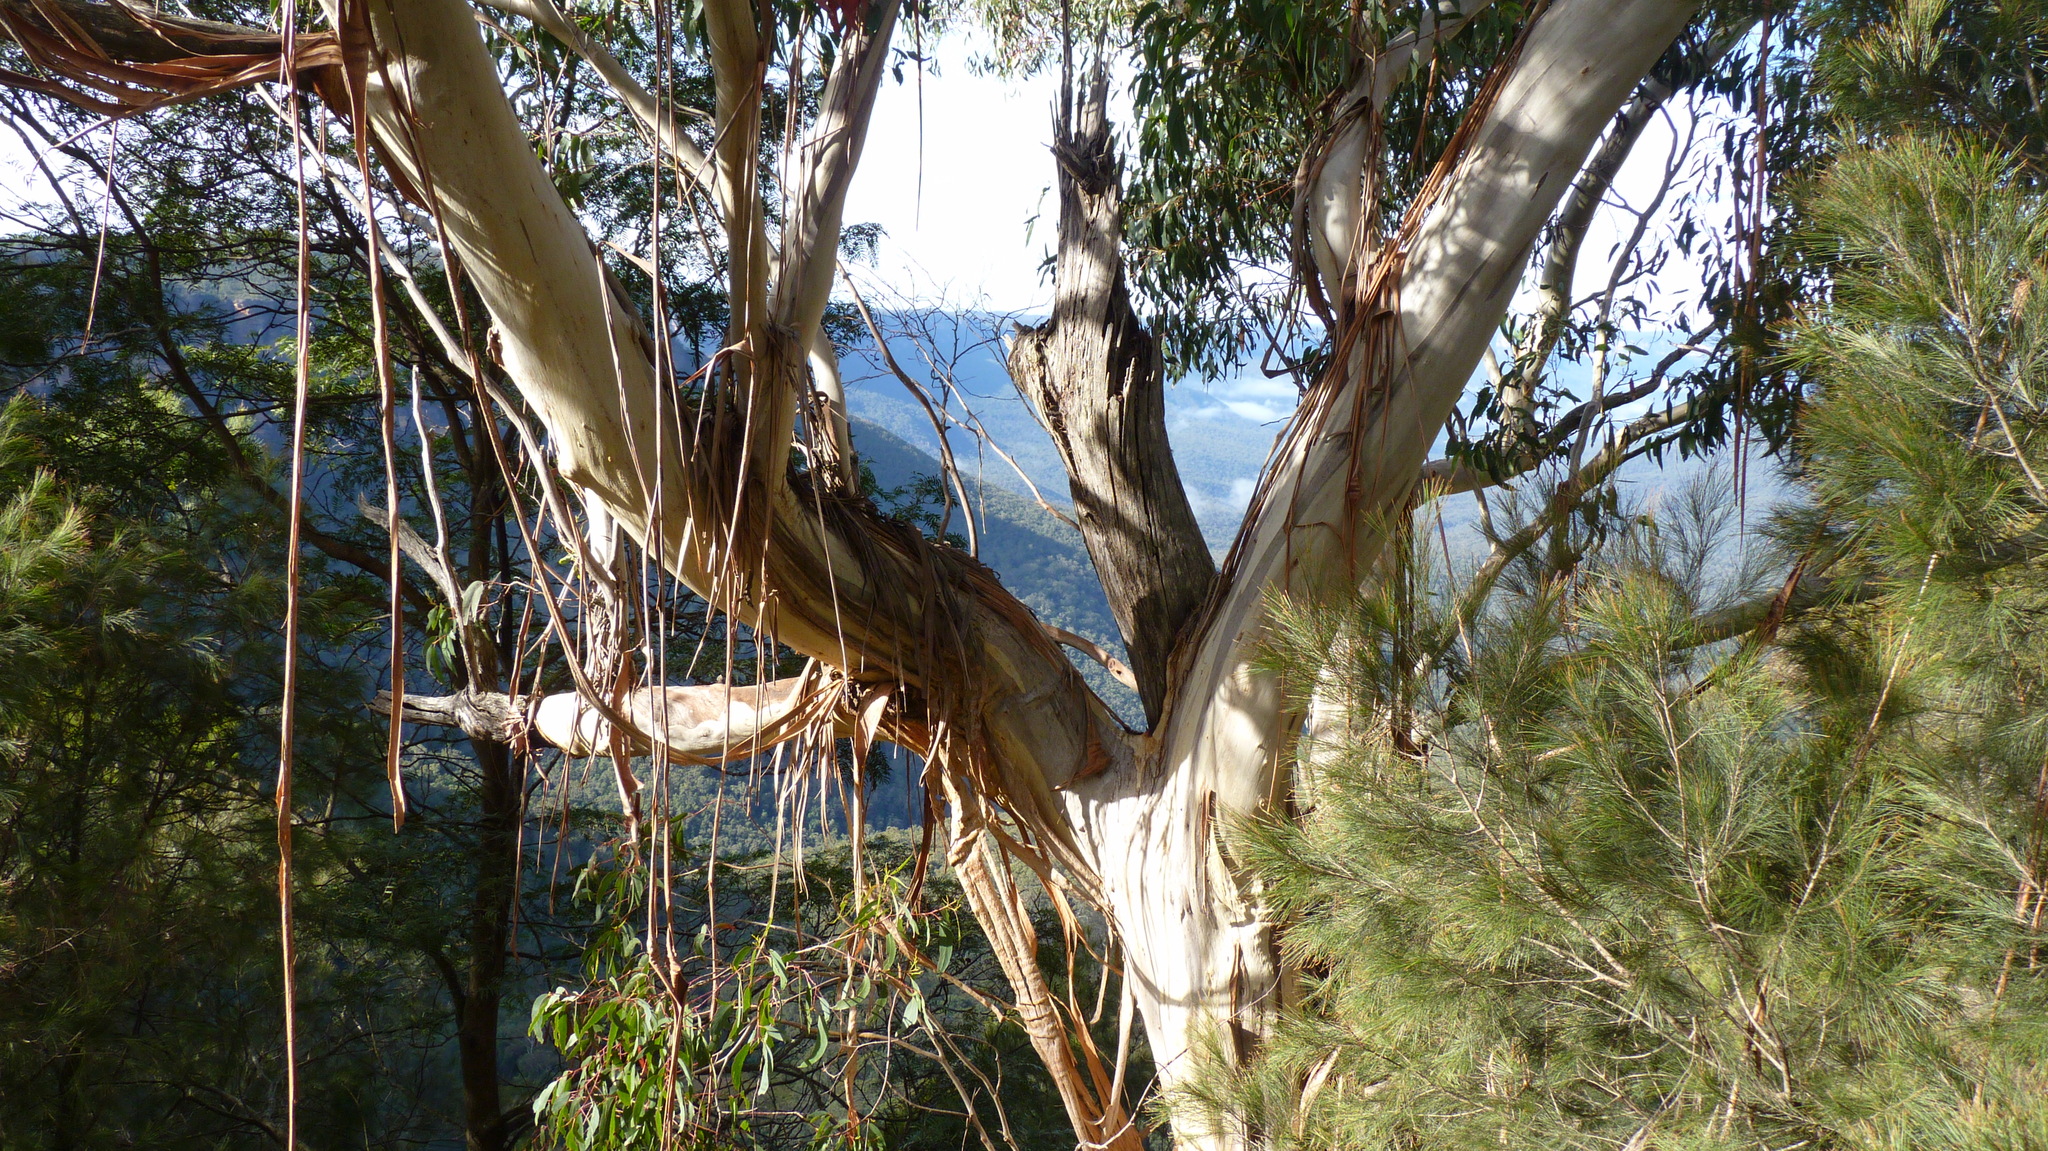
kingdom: Plantae
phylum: Tracheophyta
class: Magnoliopsida
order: Myrtales
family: Myrtaceae
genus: Eucalyptus
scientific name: Eucalyptus oreades
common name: White-ash
